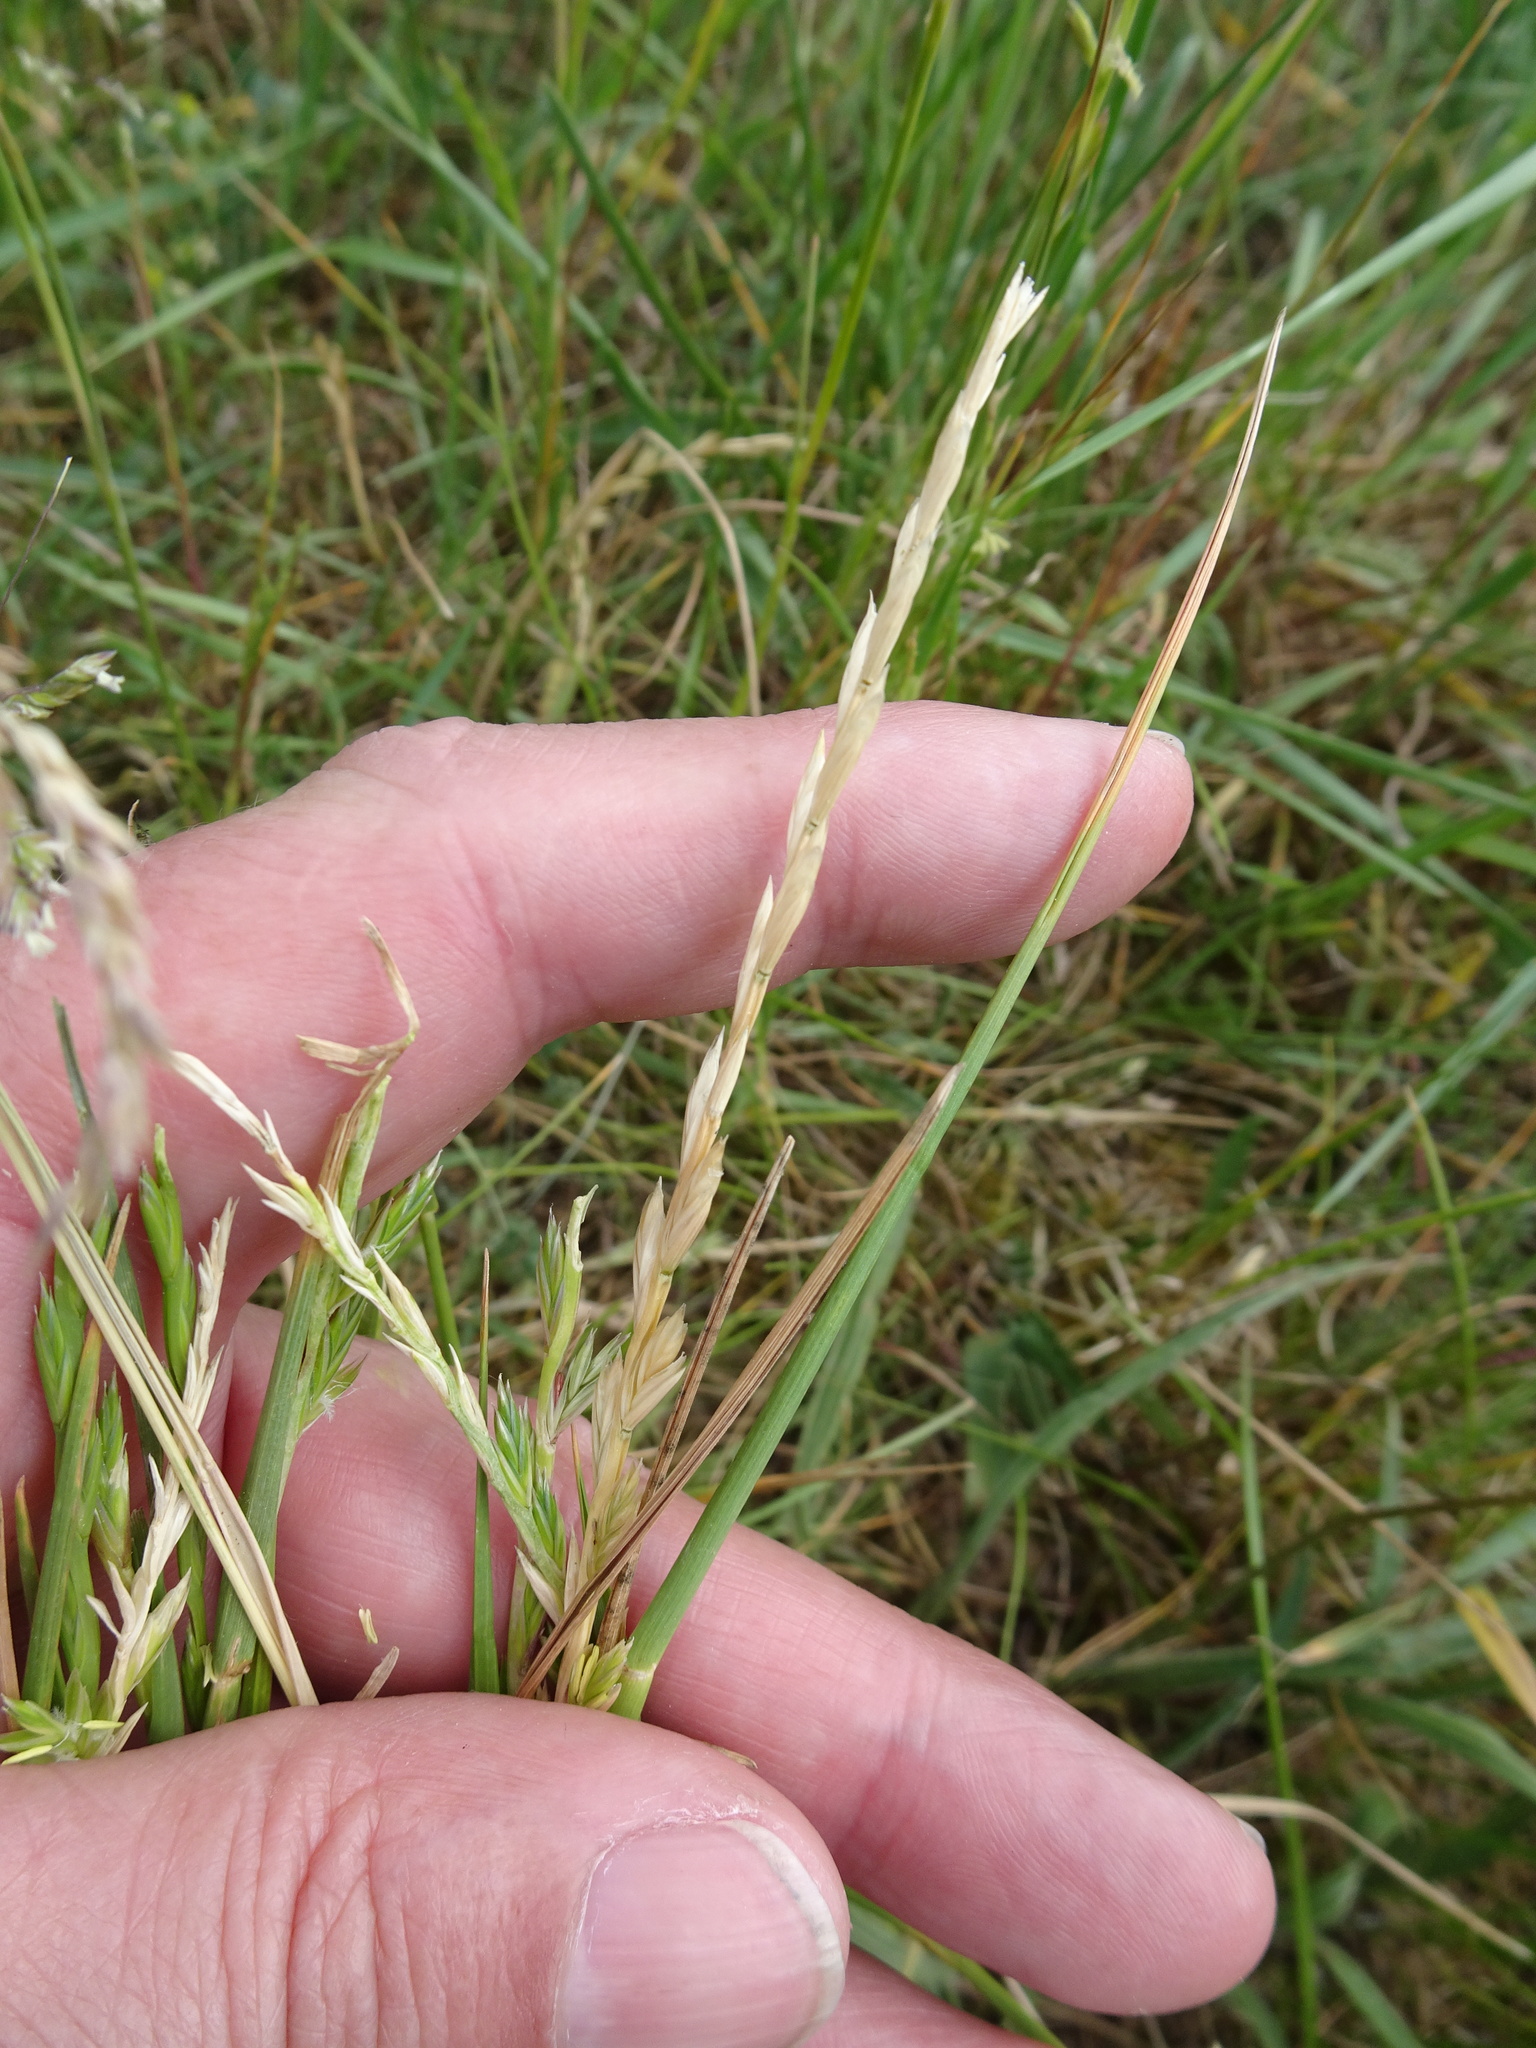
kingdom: Plantae
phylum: Tracheophyta
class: Liliopsida
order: Poales
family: Poaceae
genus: Lolium
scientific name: Lolium perenne
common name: Perennial ryegrass
